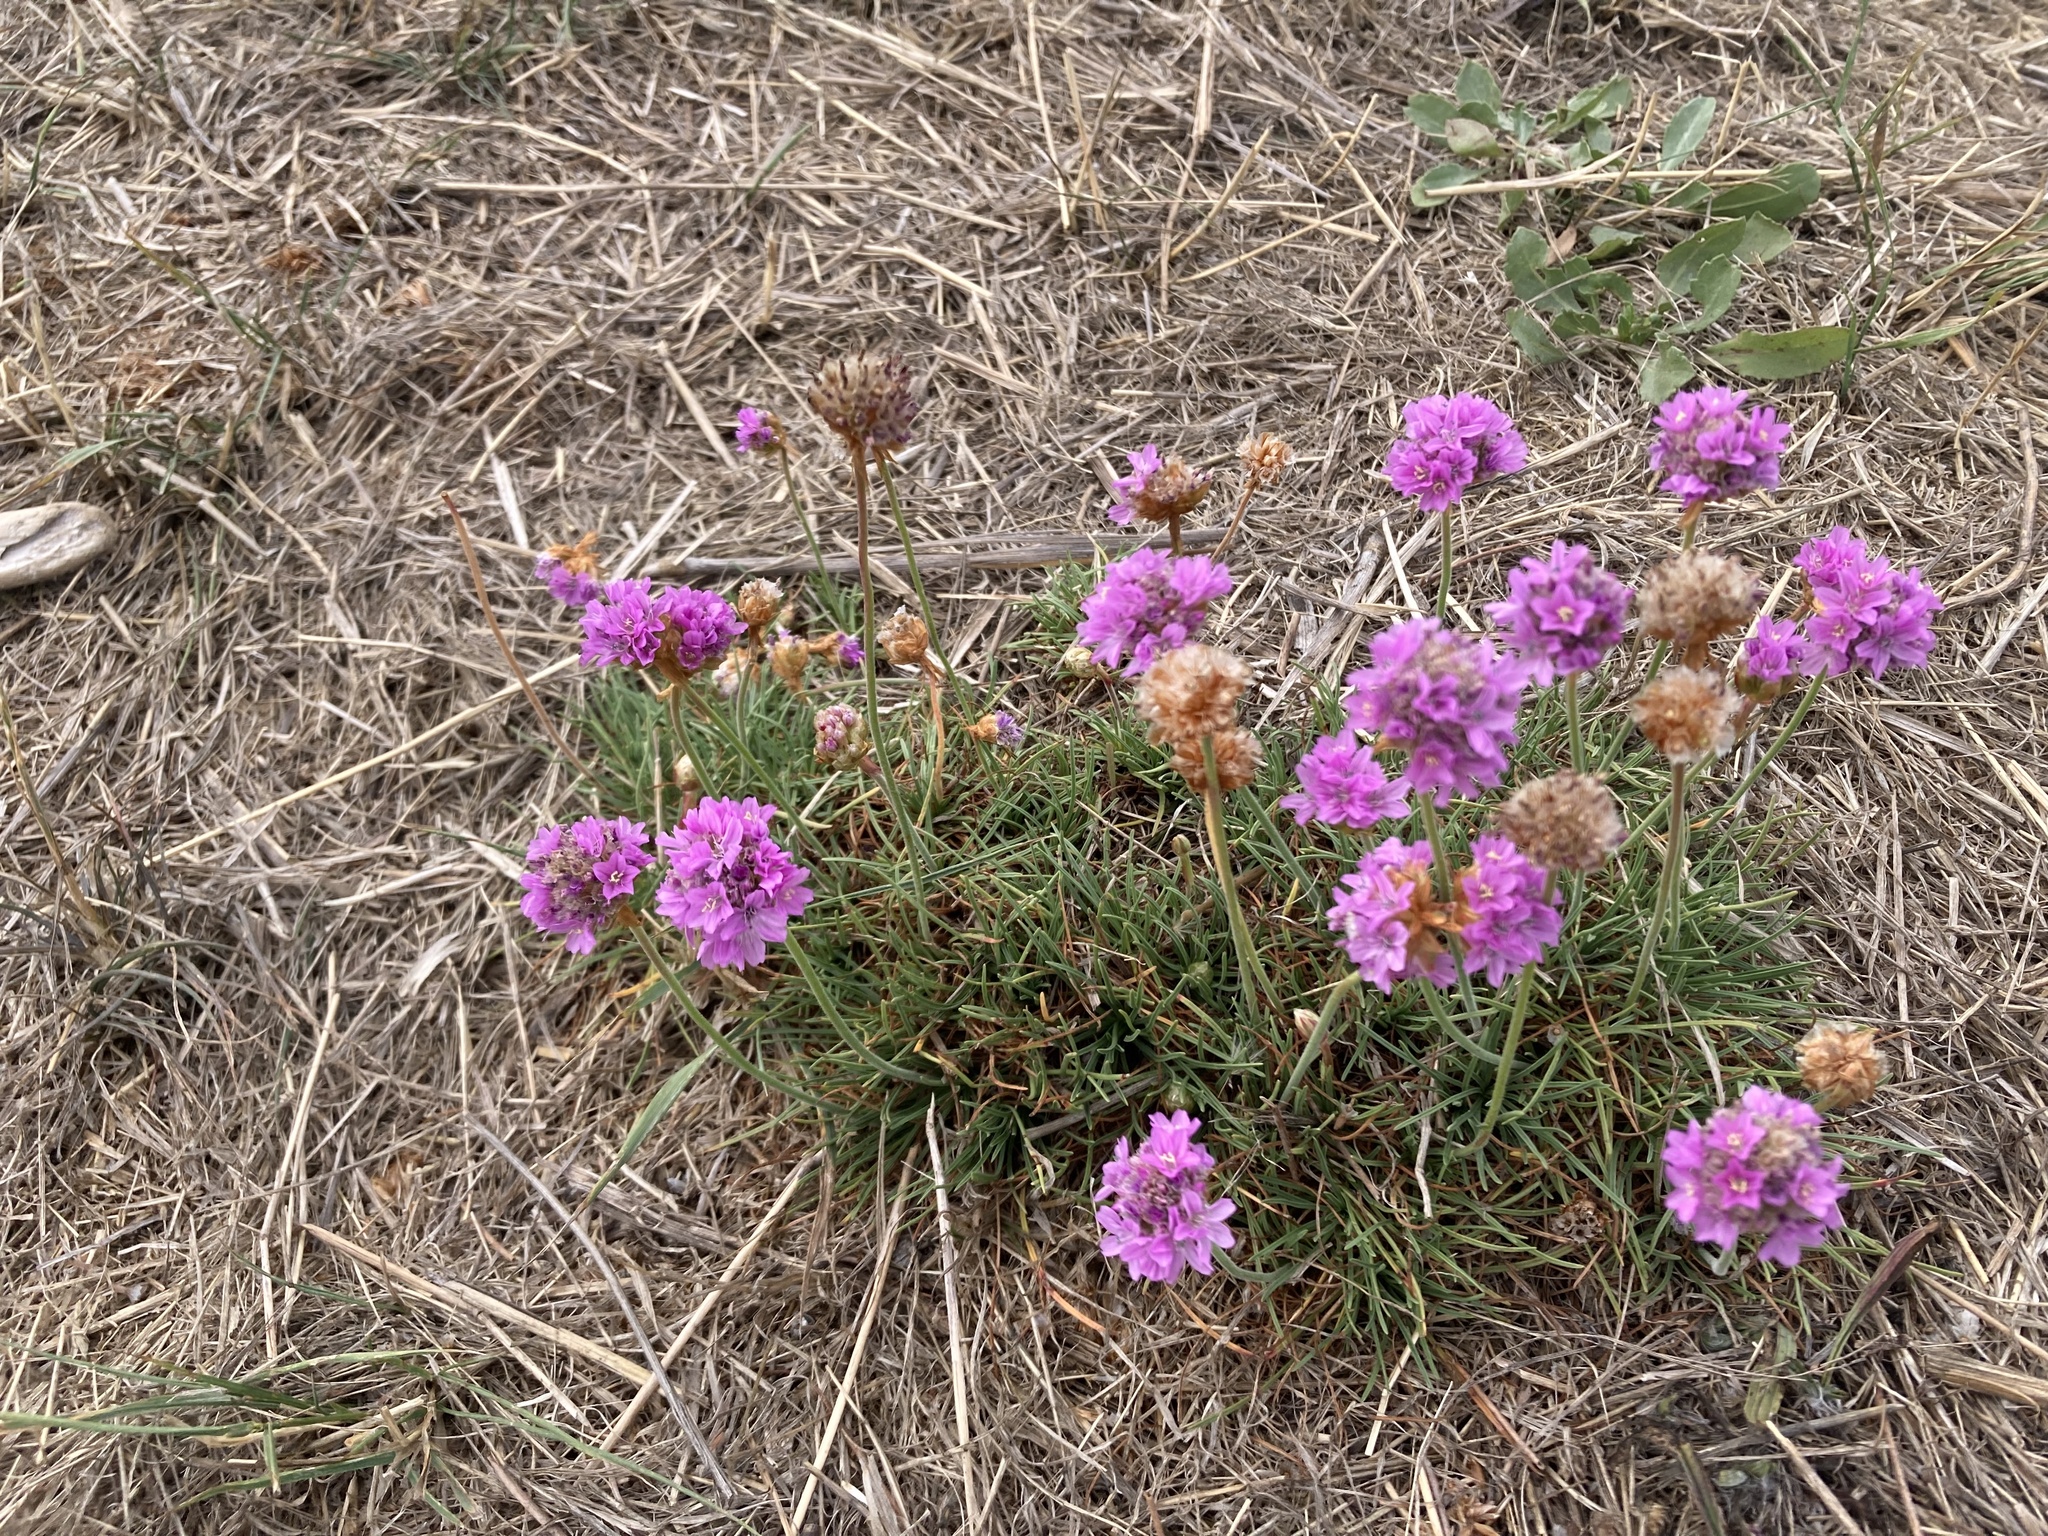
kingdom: Plantae
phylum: Tracheophyta
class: Magnoliopsida
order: Caryophyllales
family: Plumbaginaceae
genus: Armeria
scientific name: Armeria maritima
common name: Thrift
